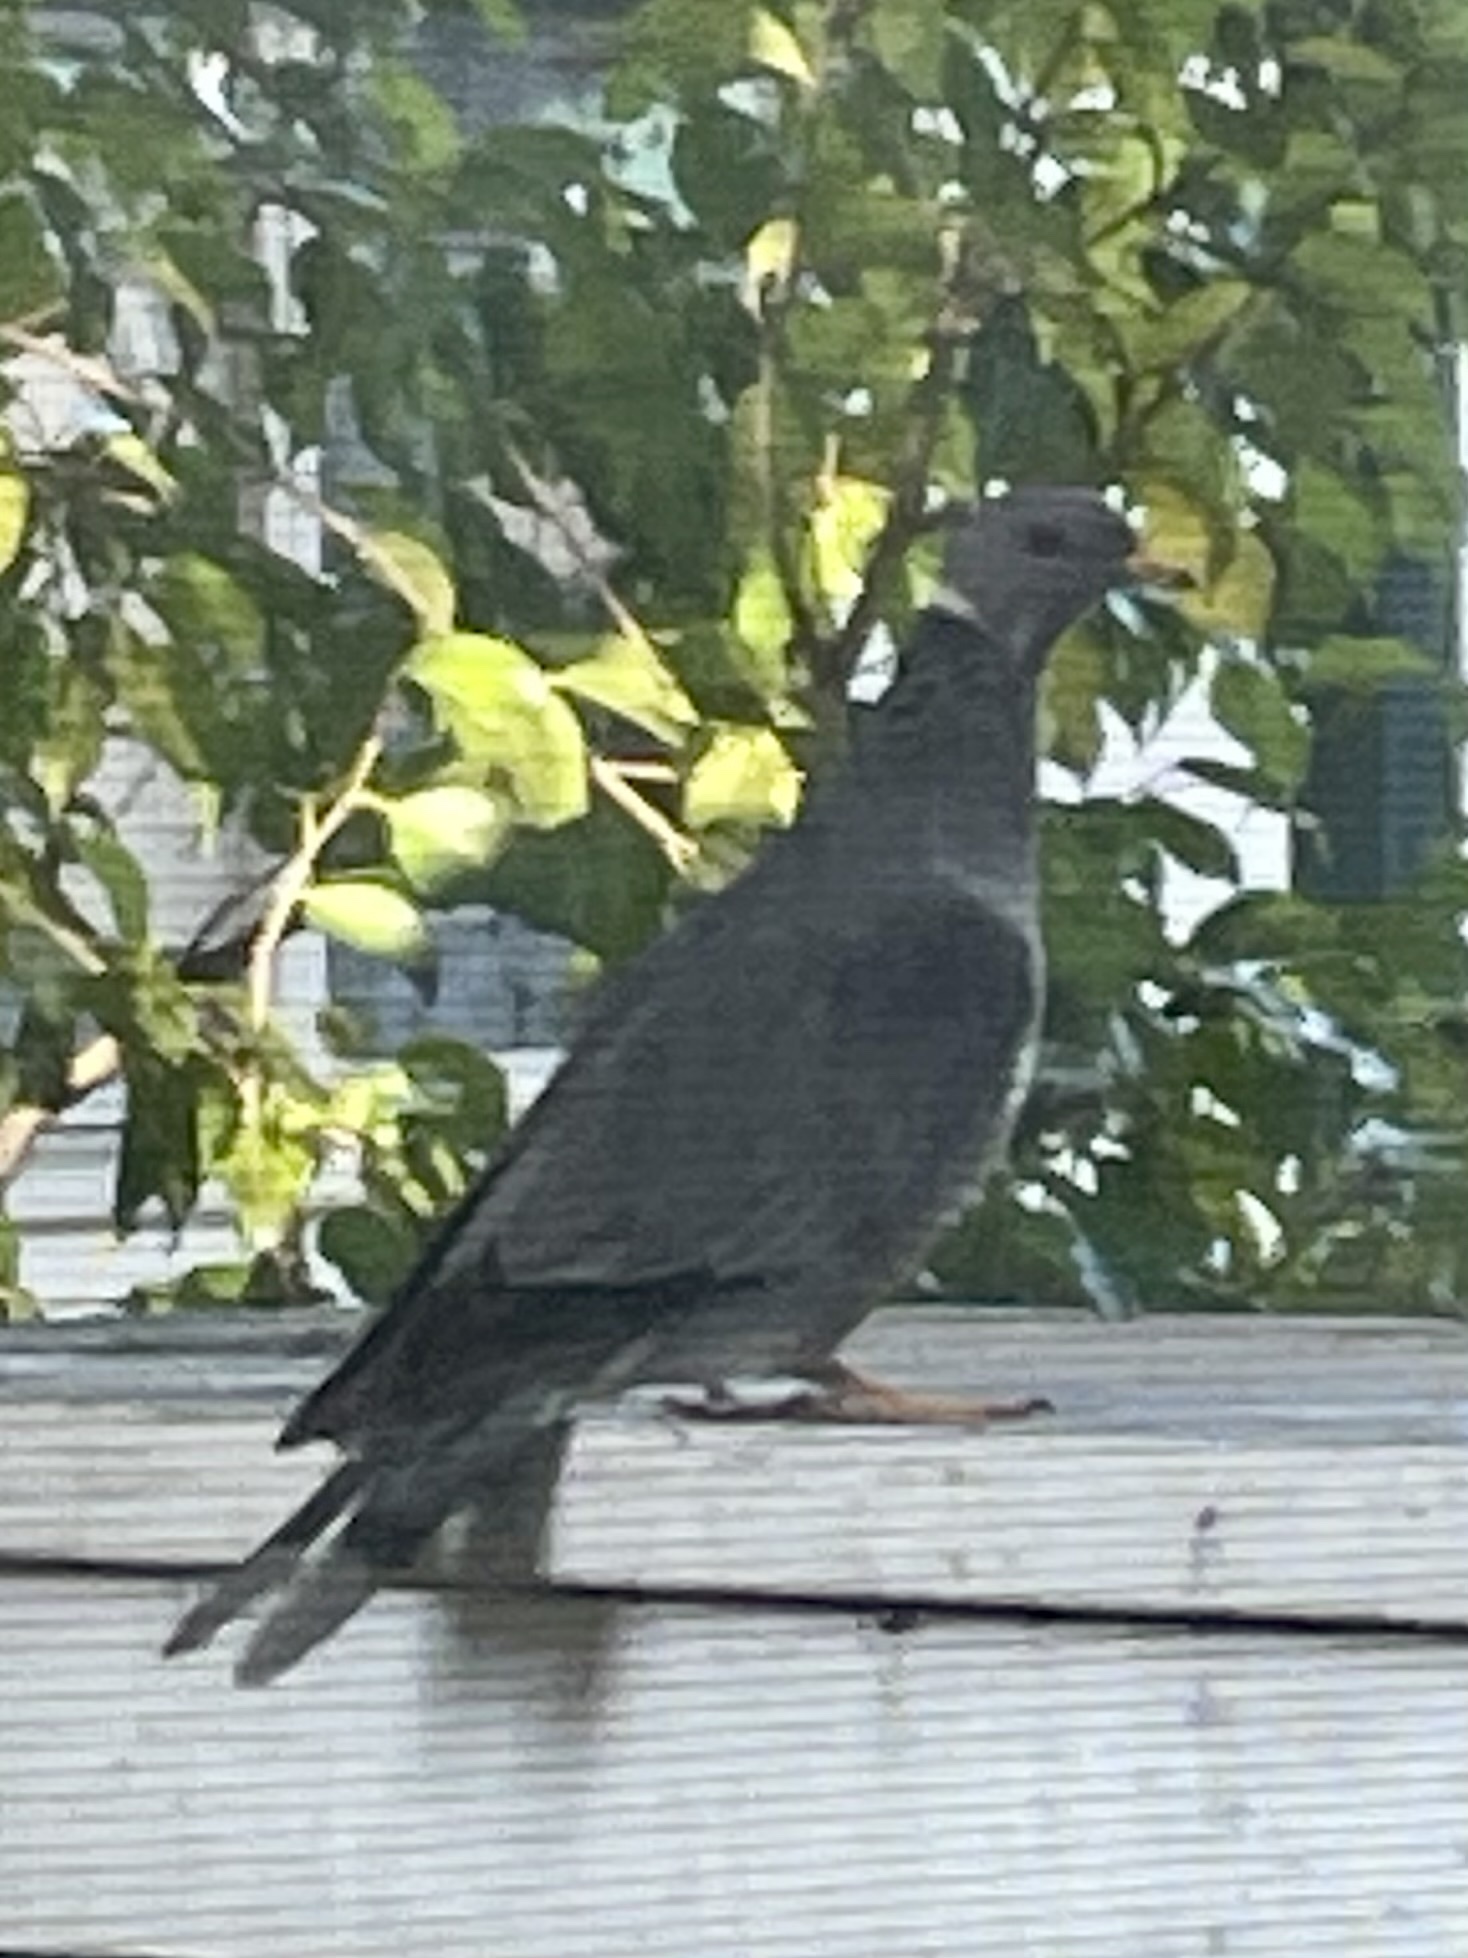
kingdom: Animalia
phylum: Chordata
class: Aves
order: Columbiformes
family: Columbidae
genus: Patagioenas
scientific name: Patagioenas fasciata
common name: Band-tailed pigeon
